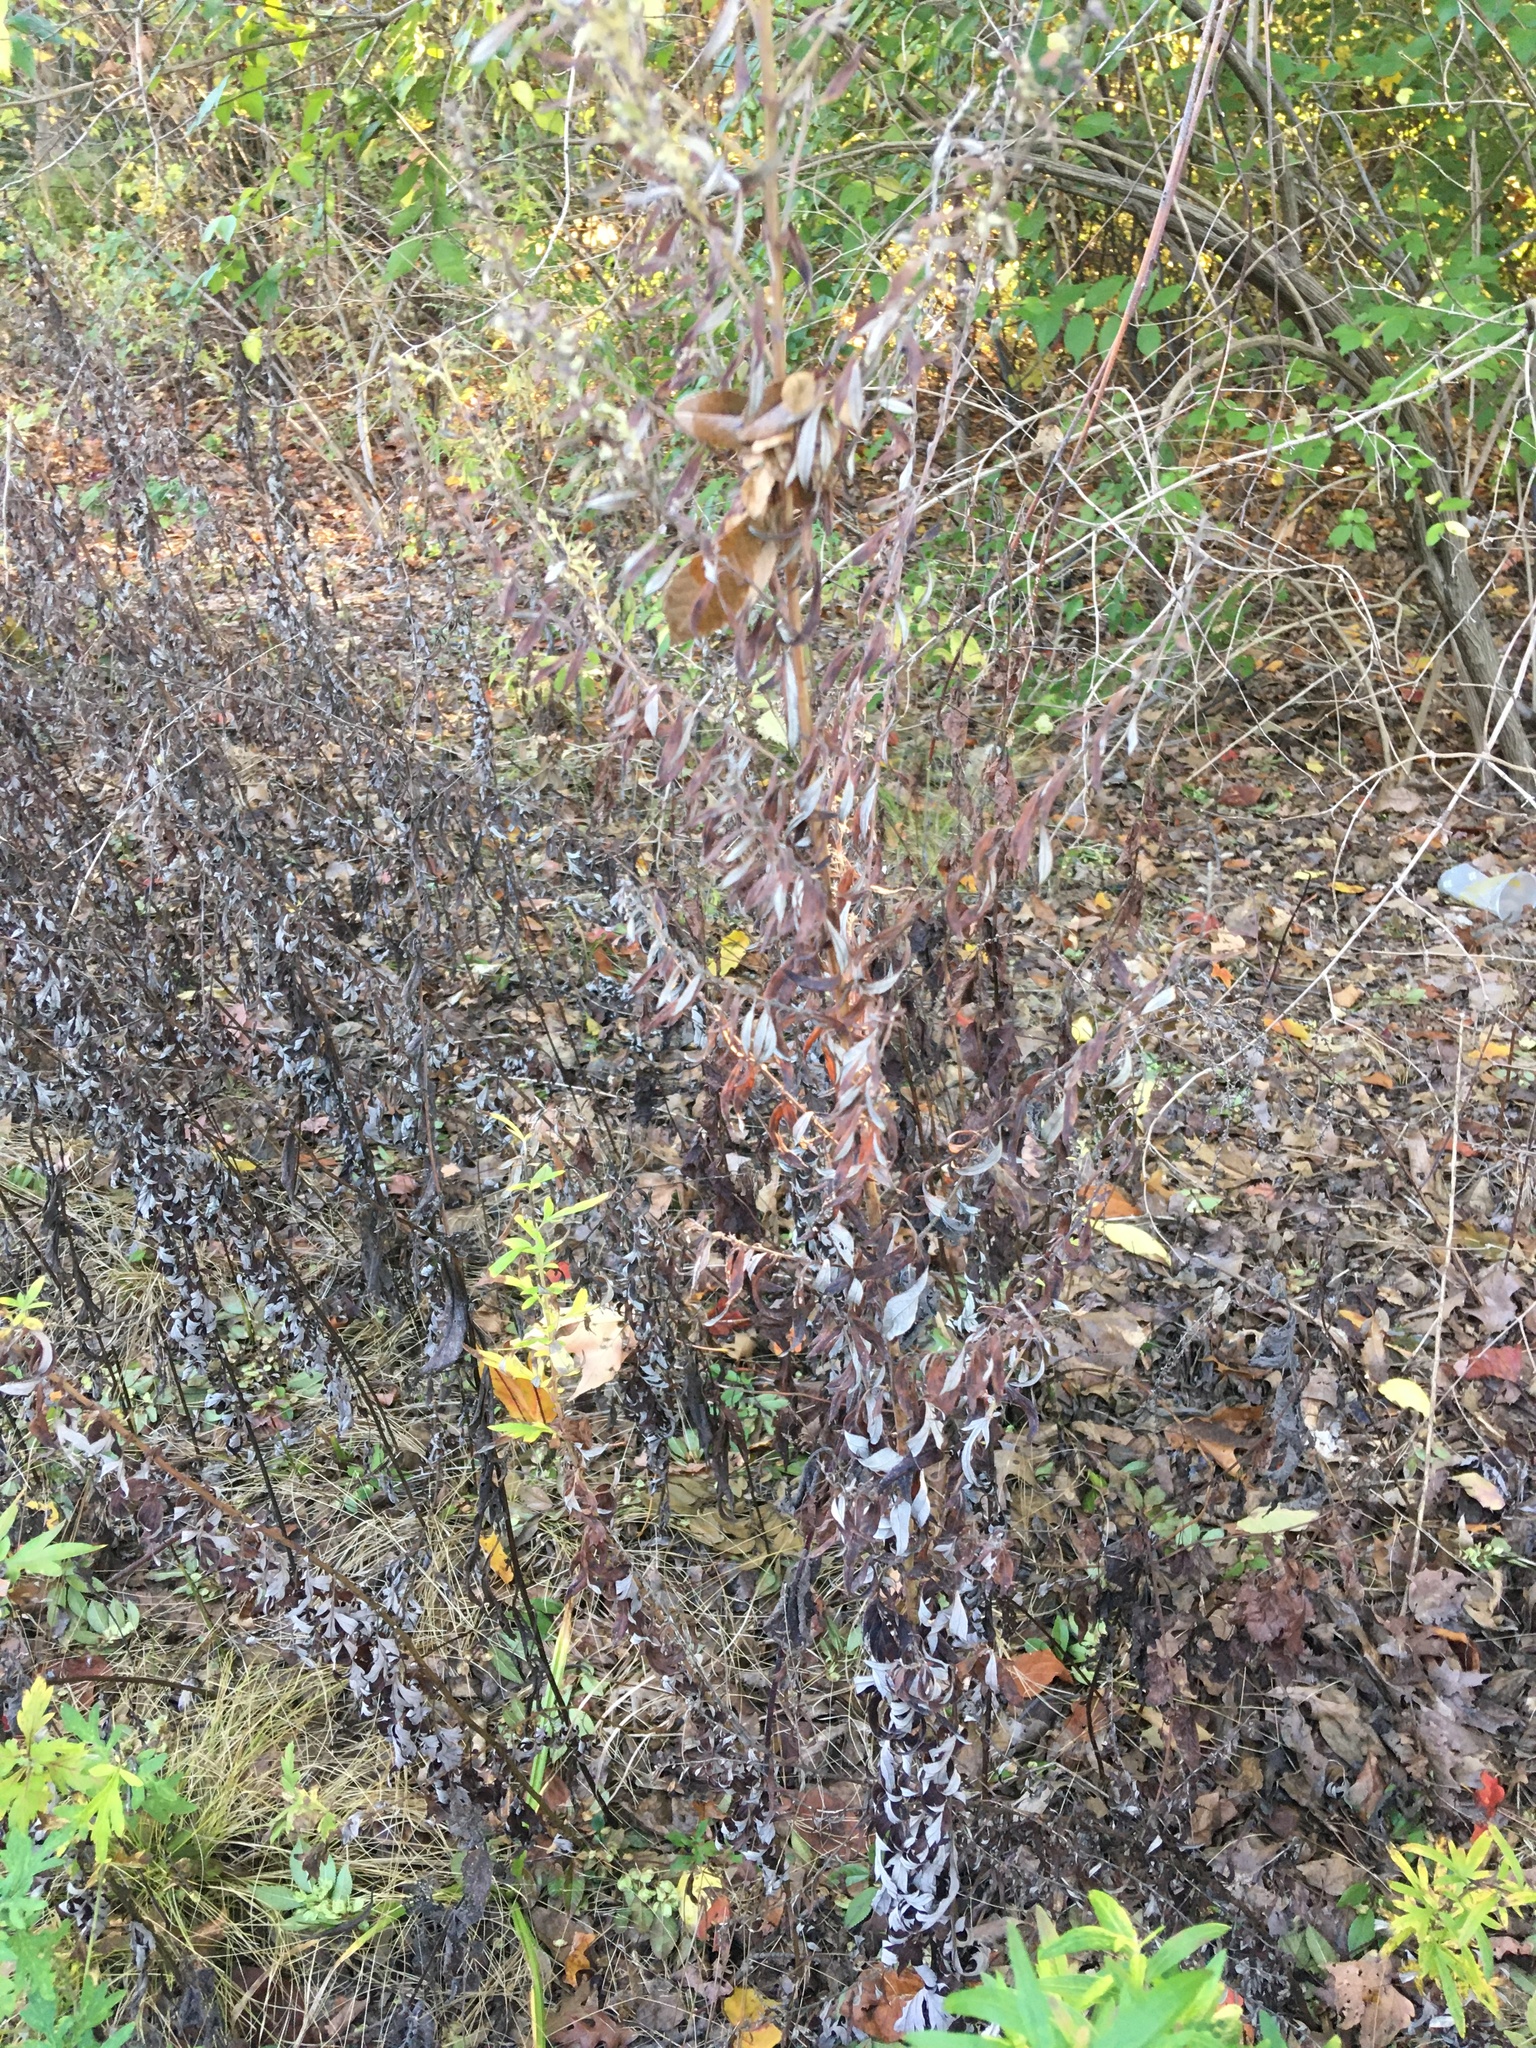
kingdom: Plantae
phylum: Tracheophyta
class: Magnoliopsida
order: Asterales
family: Asteraceae
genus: Artemisia
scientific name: Artemisia vulgaris
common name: Mugwort
